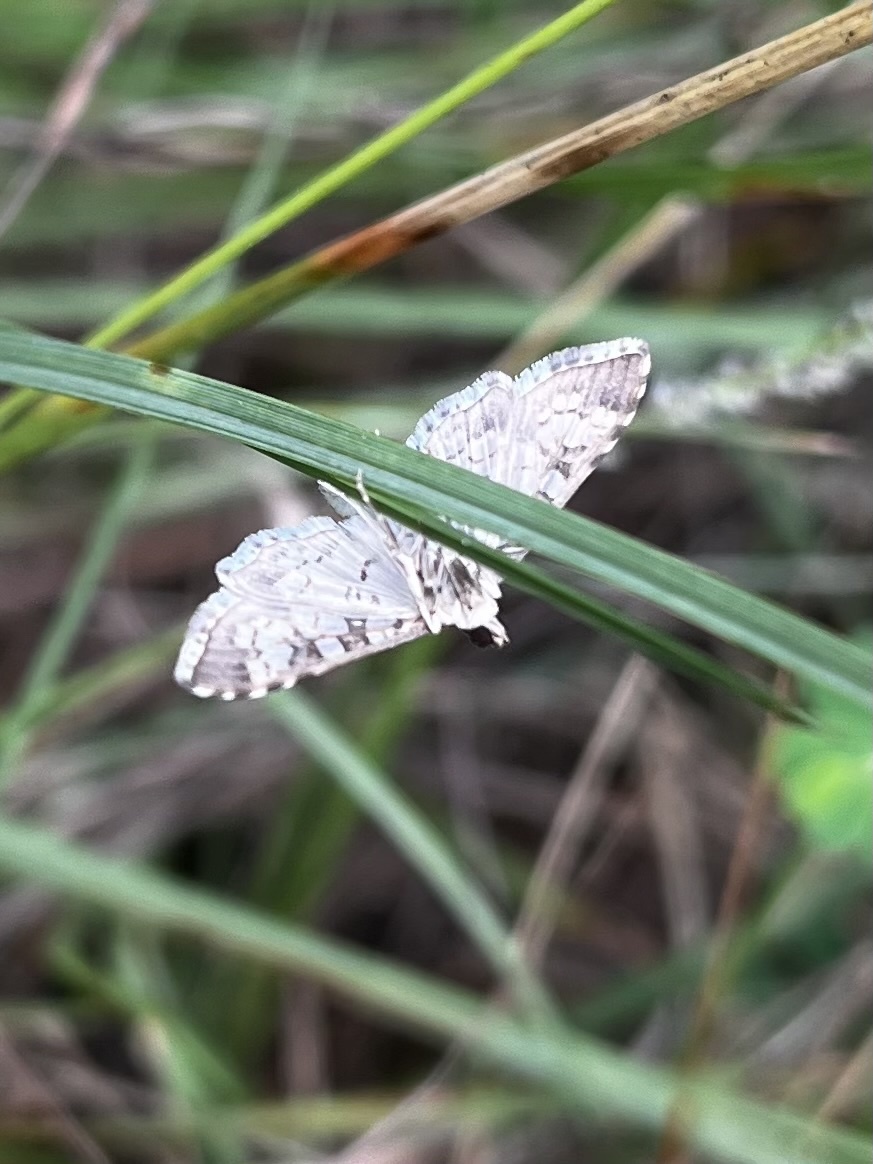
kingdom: Animalia
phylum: Arthropoda
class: Insecta
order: Lepidoptera
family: Crambidae
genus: Samea
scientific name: Samea ecclesialis
